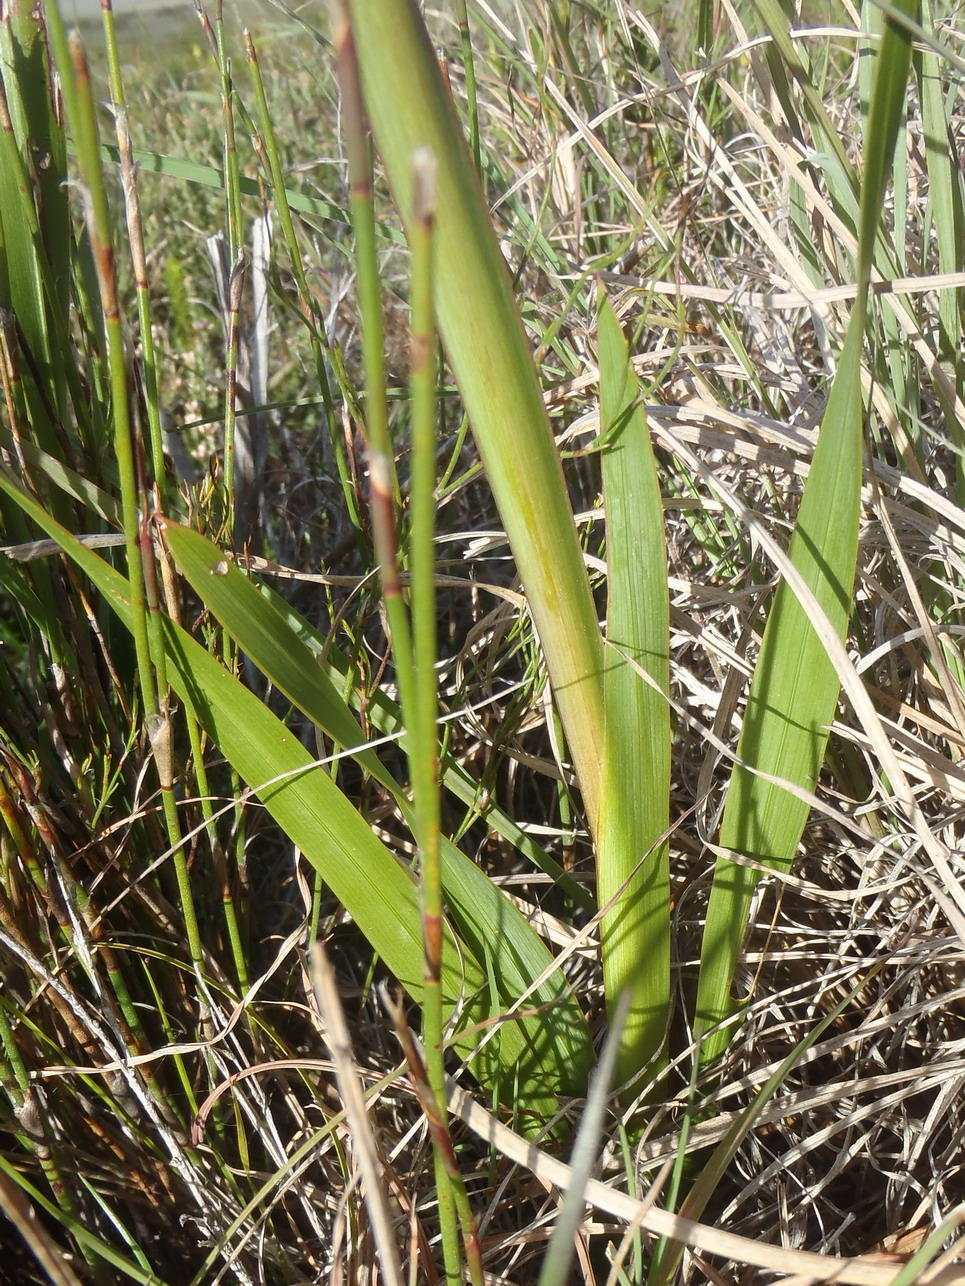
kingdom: Plantae
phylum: Tracheophyta
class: Liliopsida
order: Asparagales
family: Iridaceae
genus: Watsonia
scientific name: Watsonia laccata
